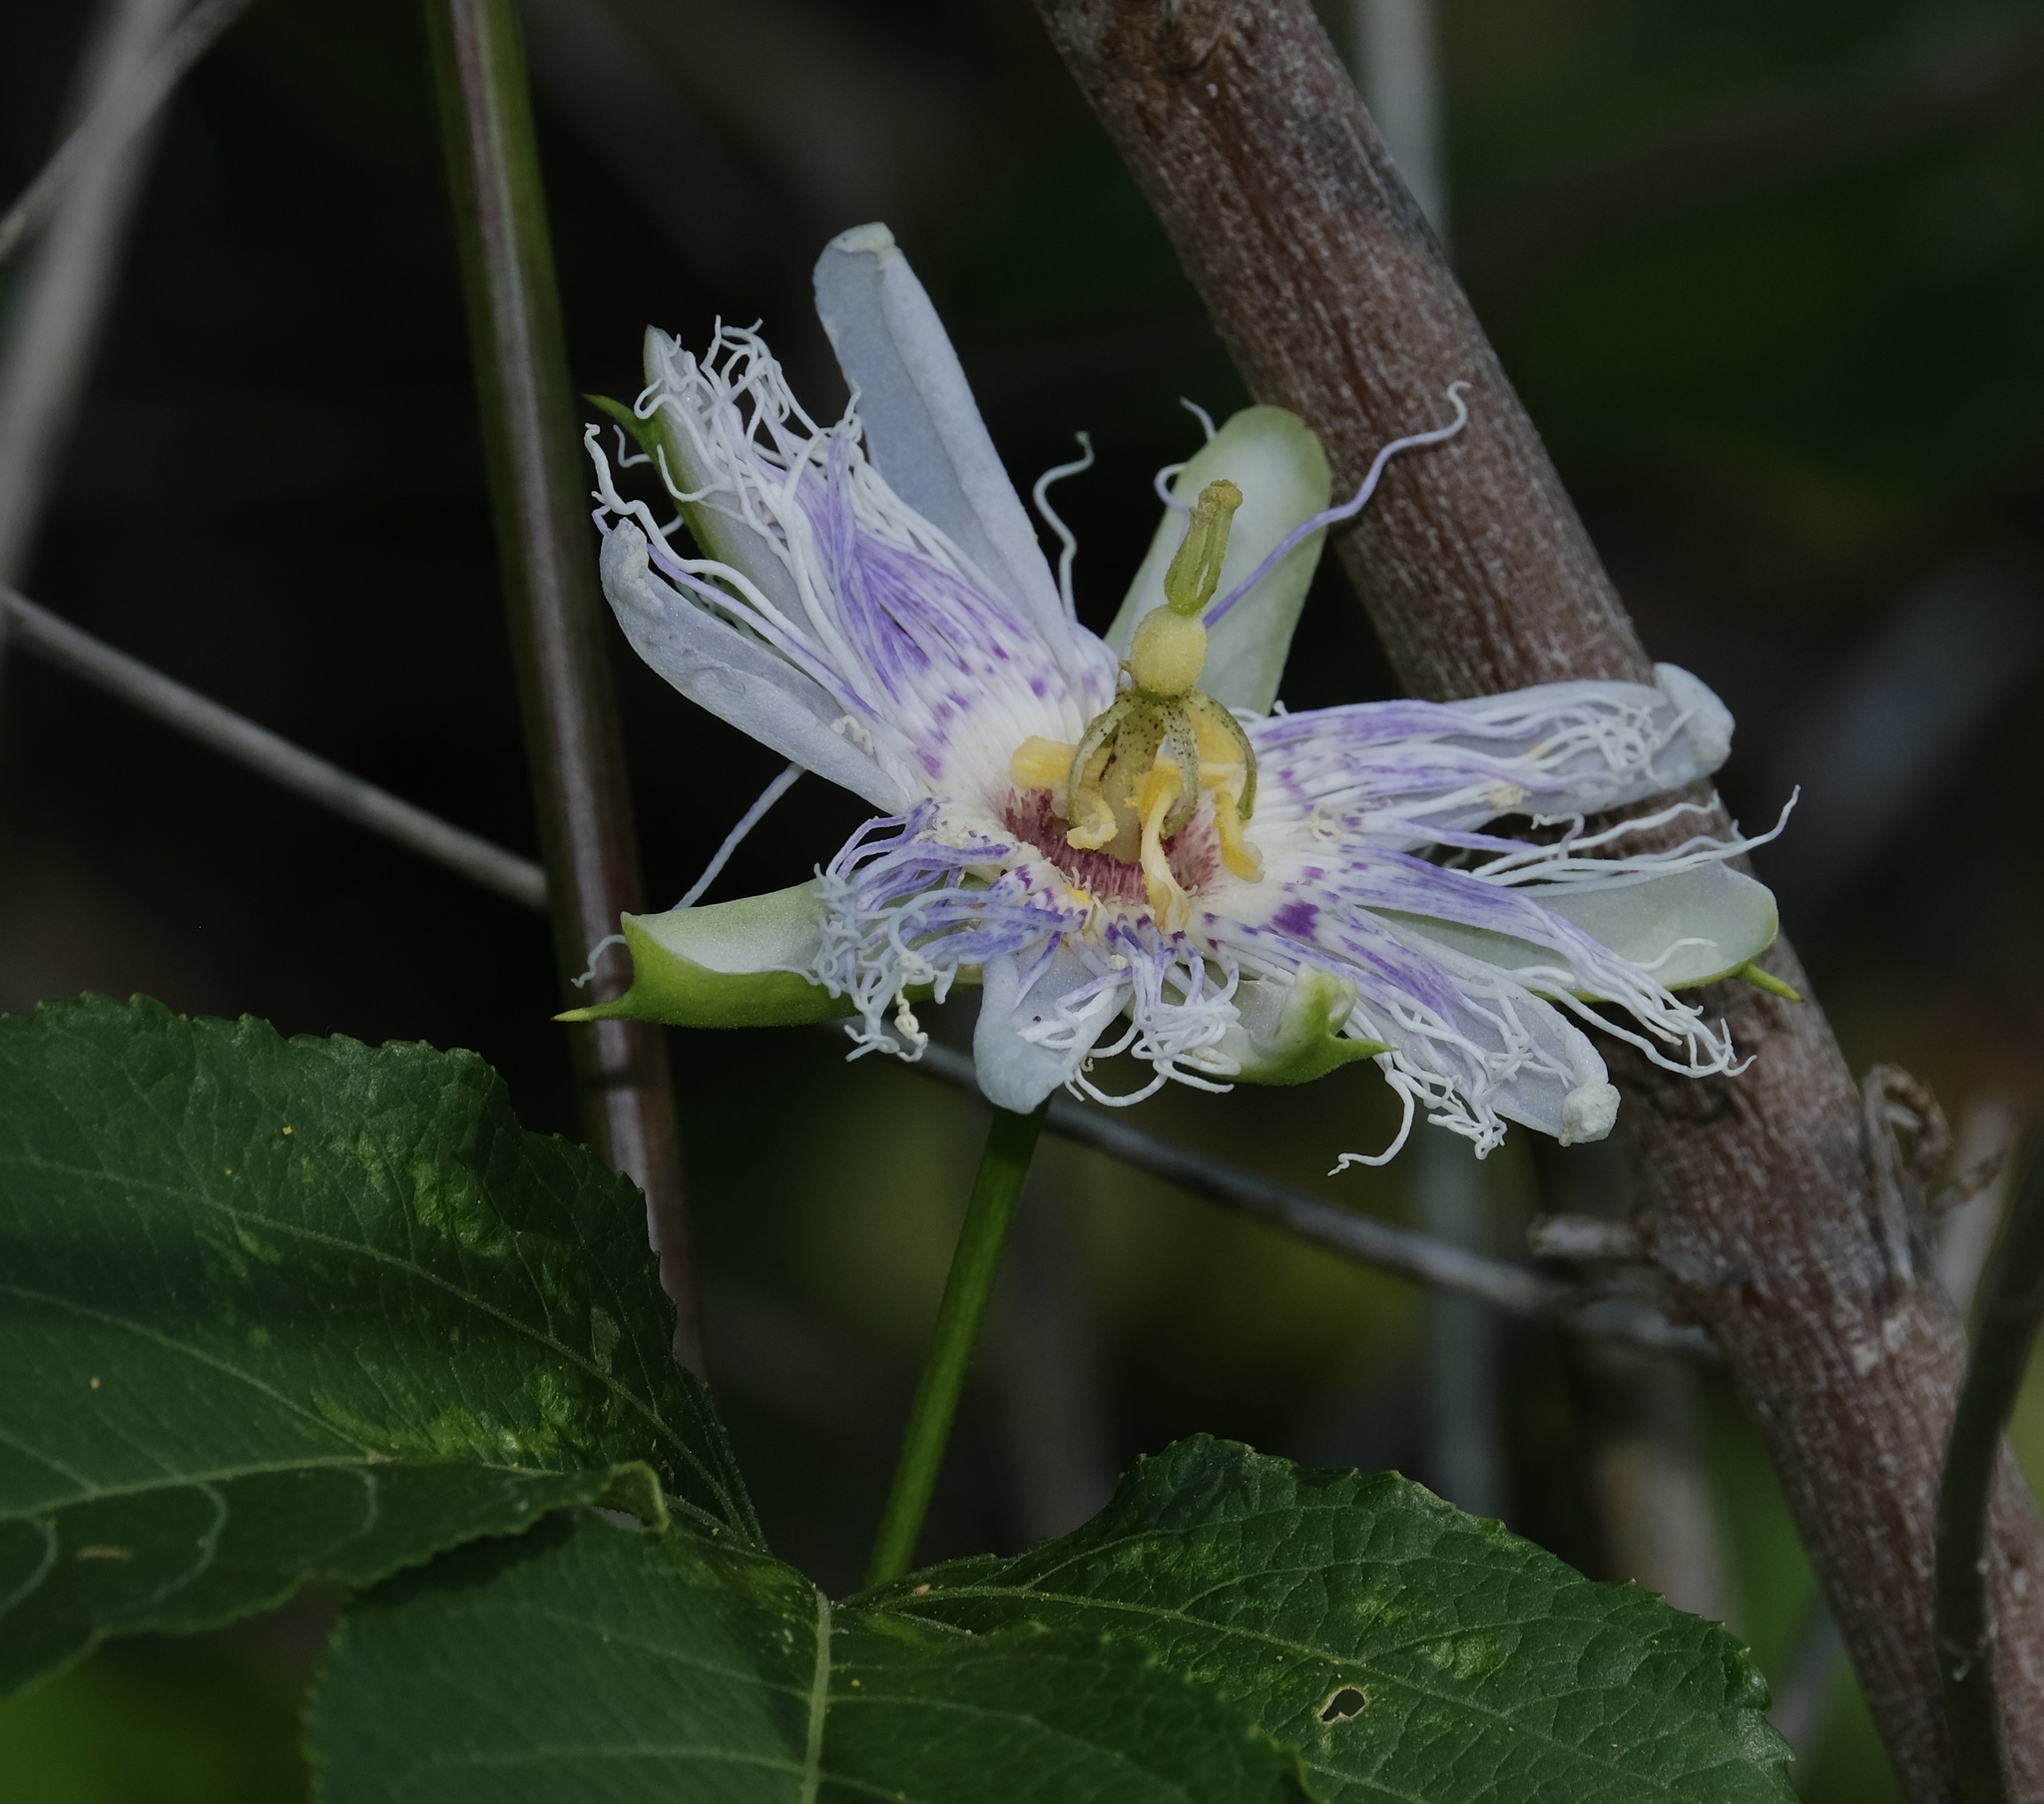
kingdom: Plantae
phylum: Tracheophyta
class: Magnoliopsida
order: Malpighiales
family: Passifloraceae
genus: Passiflora
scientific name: Passiflora incarnata
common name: Apricot-vine
